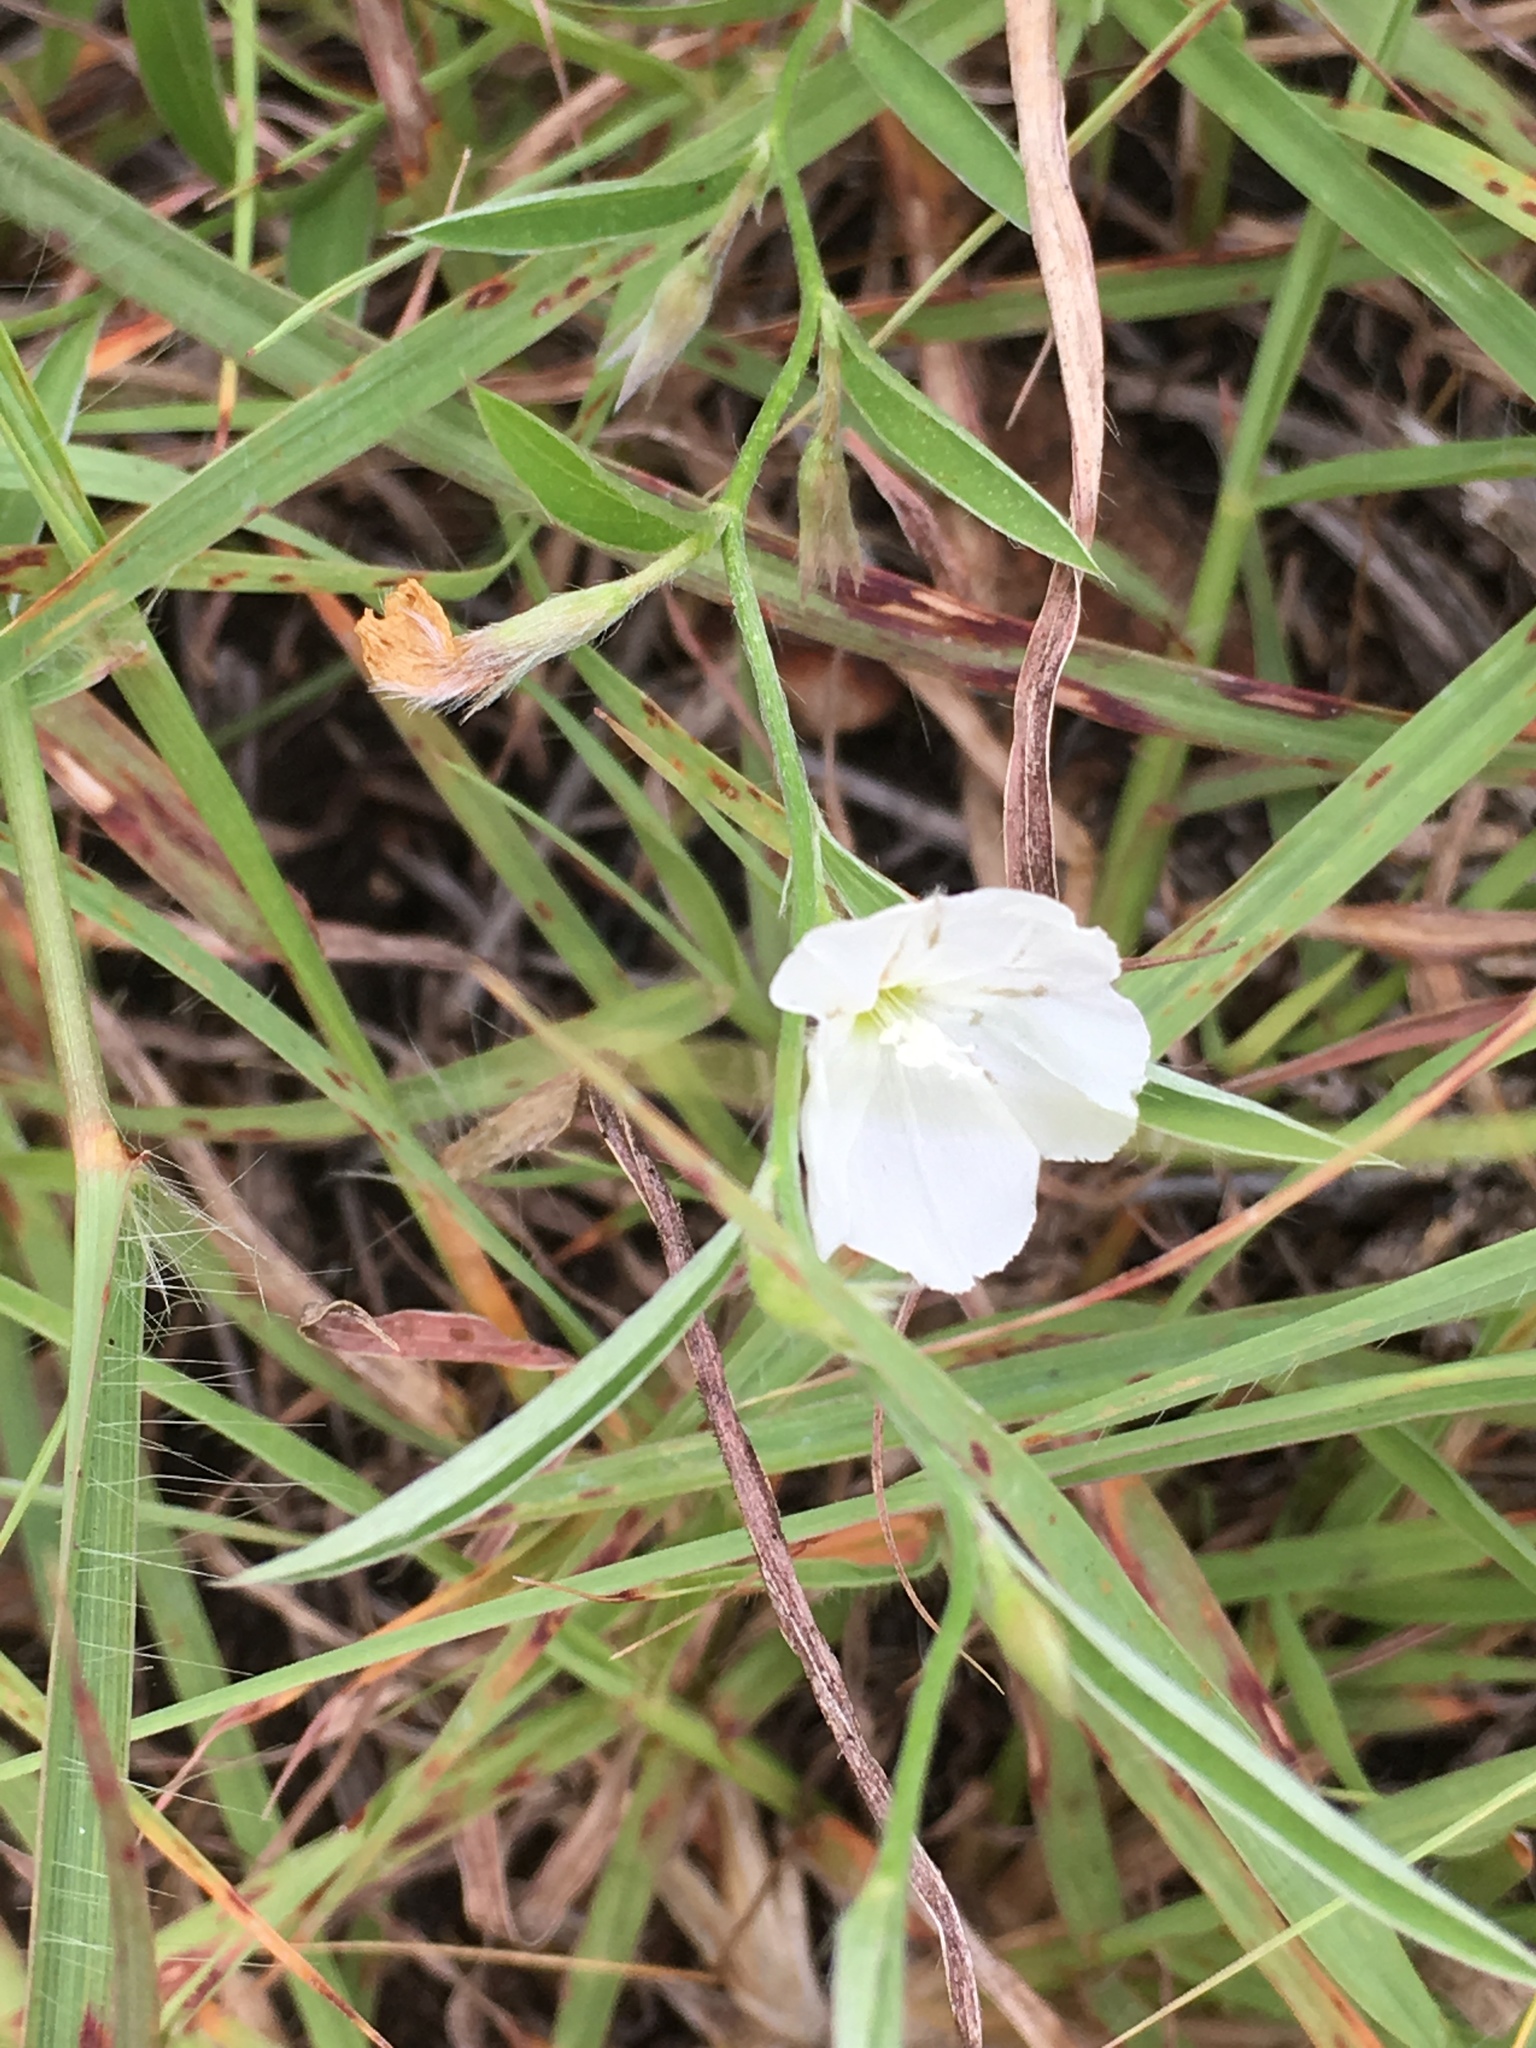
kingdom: Plantae
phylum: Tracheophyta
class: Magnoliopsida
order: Solanales
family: Convolvulaceae
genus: Evolvulus
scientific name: Evolvulus sericeus
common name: Blue dots
